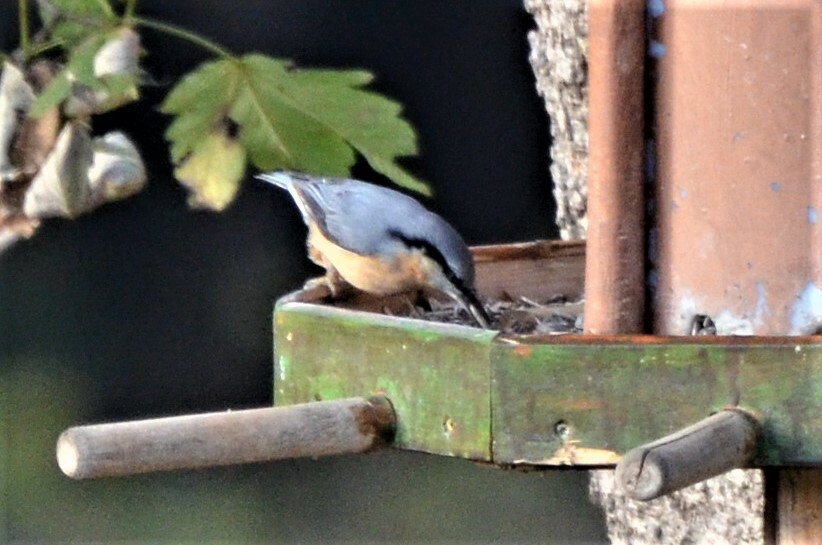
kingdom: Animalia
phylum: Chordata
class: Aves
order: Passeriformes
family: Sittidae
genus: Sitta
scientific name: Sitta europaea
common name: Eurasian nuthatch
